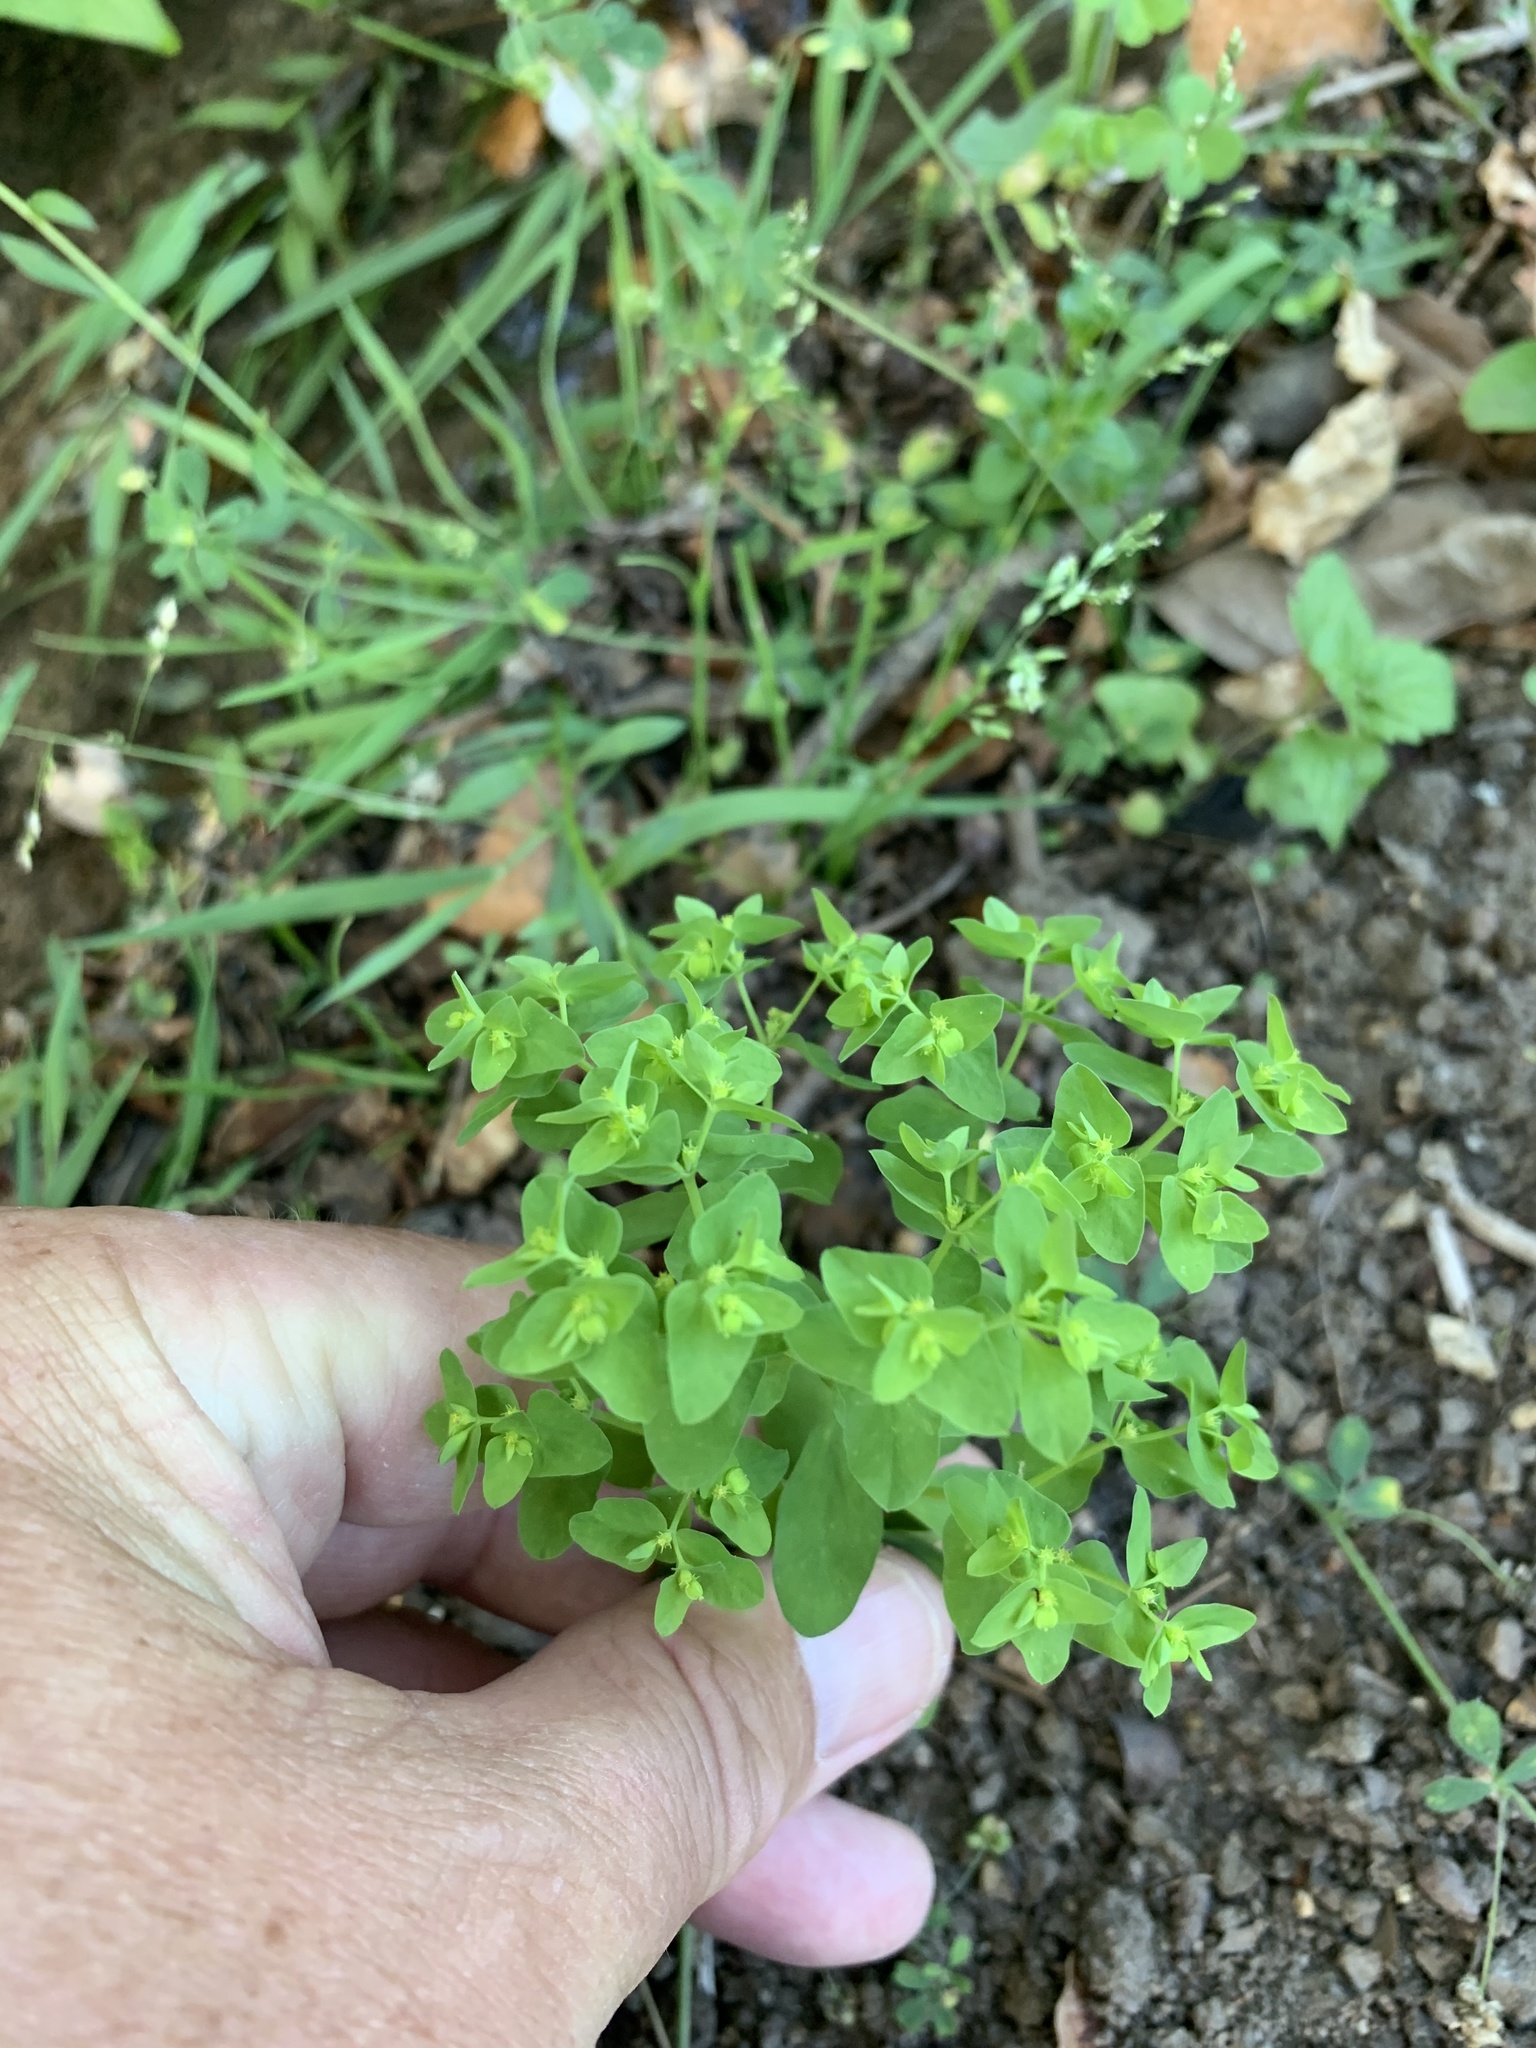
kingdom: Plantae
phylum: Tracheophyta
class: Magnoliopsida
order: Malpighiales
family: Euphorbiaceae
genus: Euphorbia
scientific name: Euphorbia peplus
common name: Petty spurge
